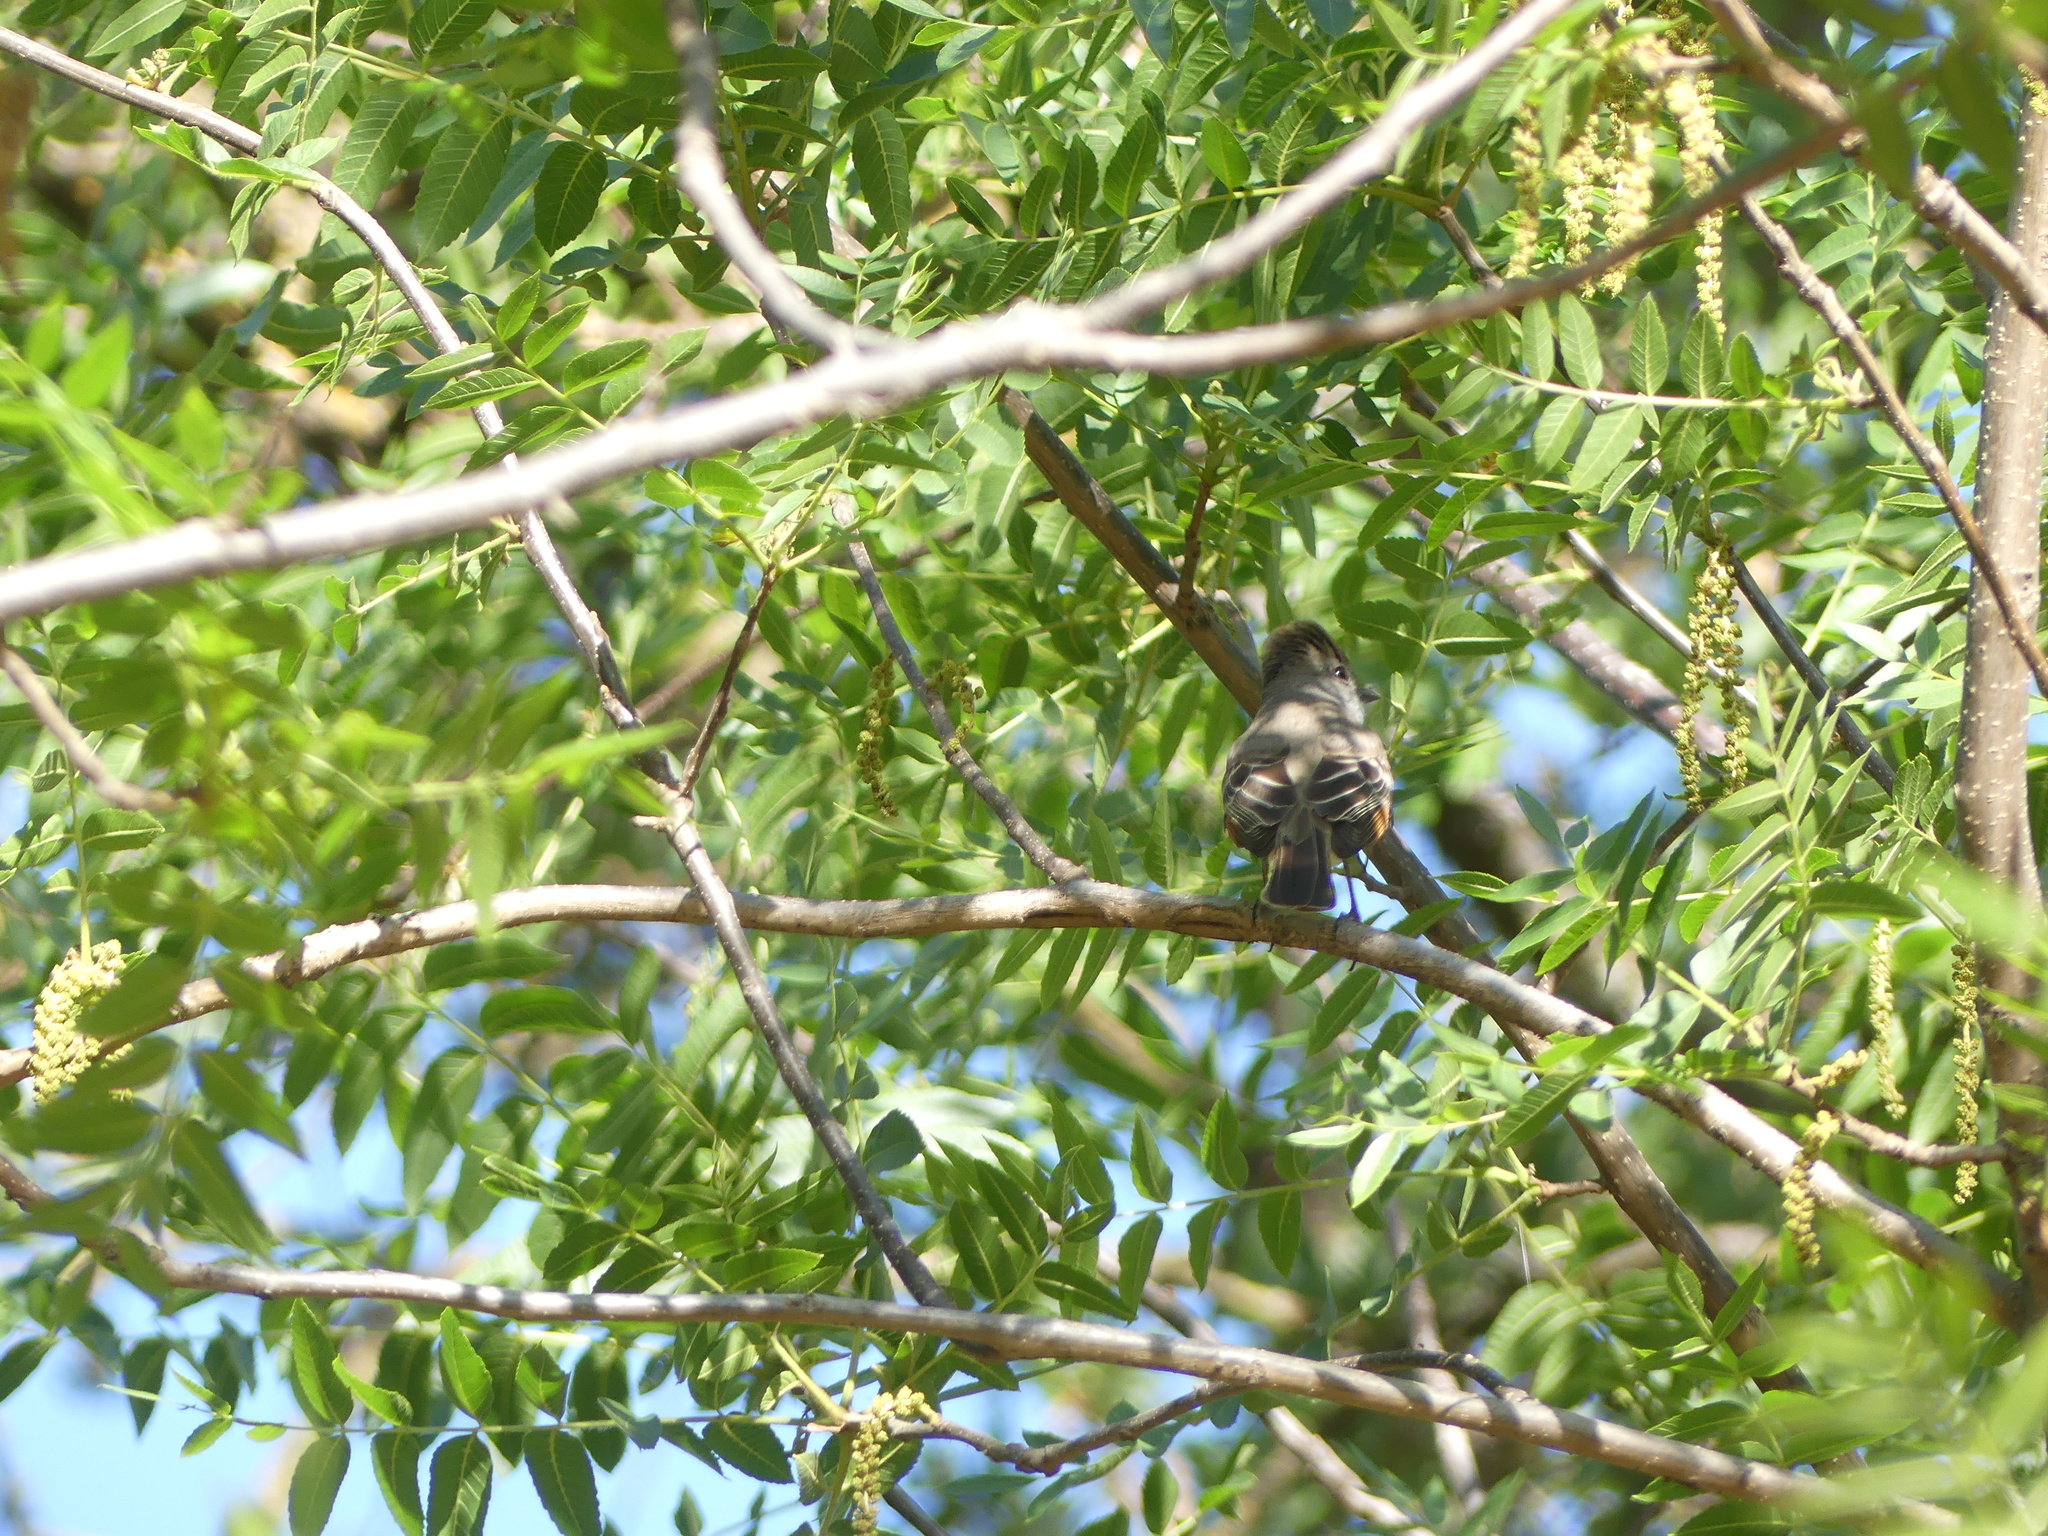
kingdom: Animalia
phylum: Chordata
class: Aves
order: Passeriformes
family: Tyrannidae
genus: Myiarchus
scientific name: Myiarchus cinerascens
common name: Ash-throated flycatcher
